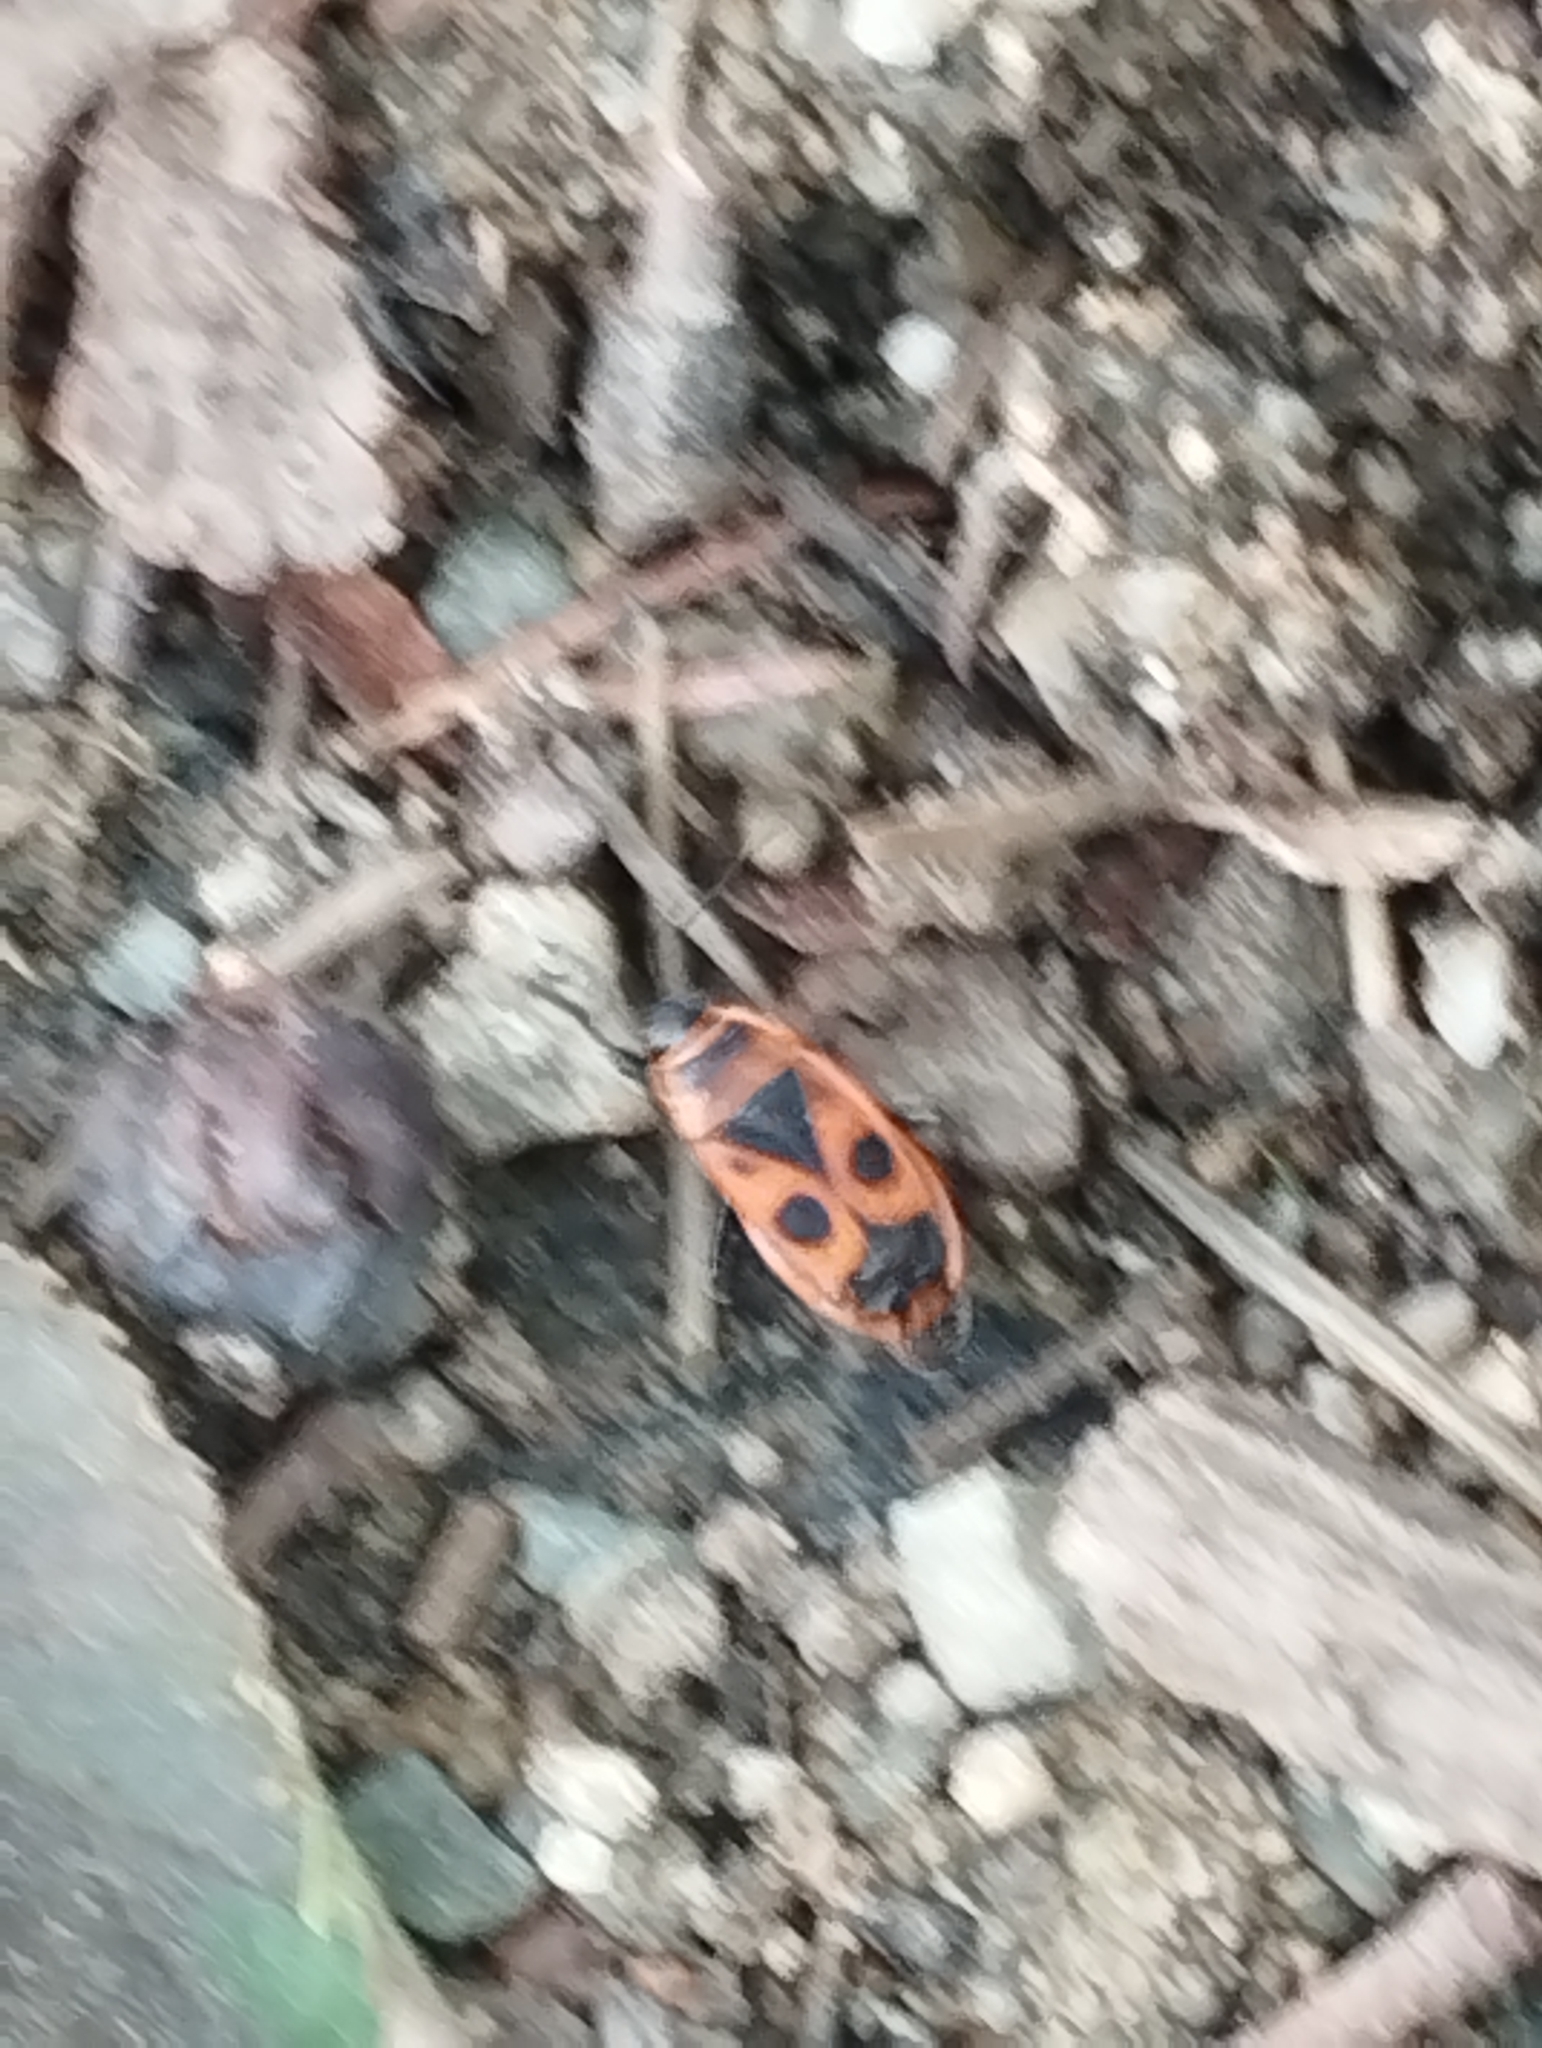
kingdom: Animalia
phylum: Arthropoda
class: Insecta
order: Hemiptera
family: Pyrrhocoridae
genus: Pyrrhocoris
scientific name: Pyrrhocoris apterus
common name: Firebug
